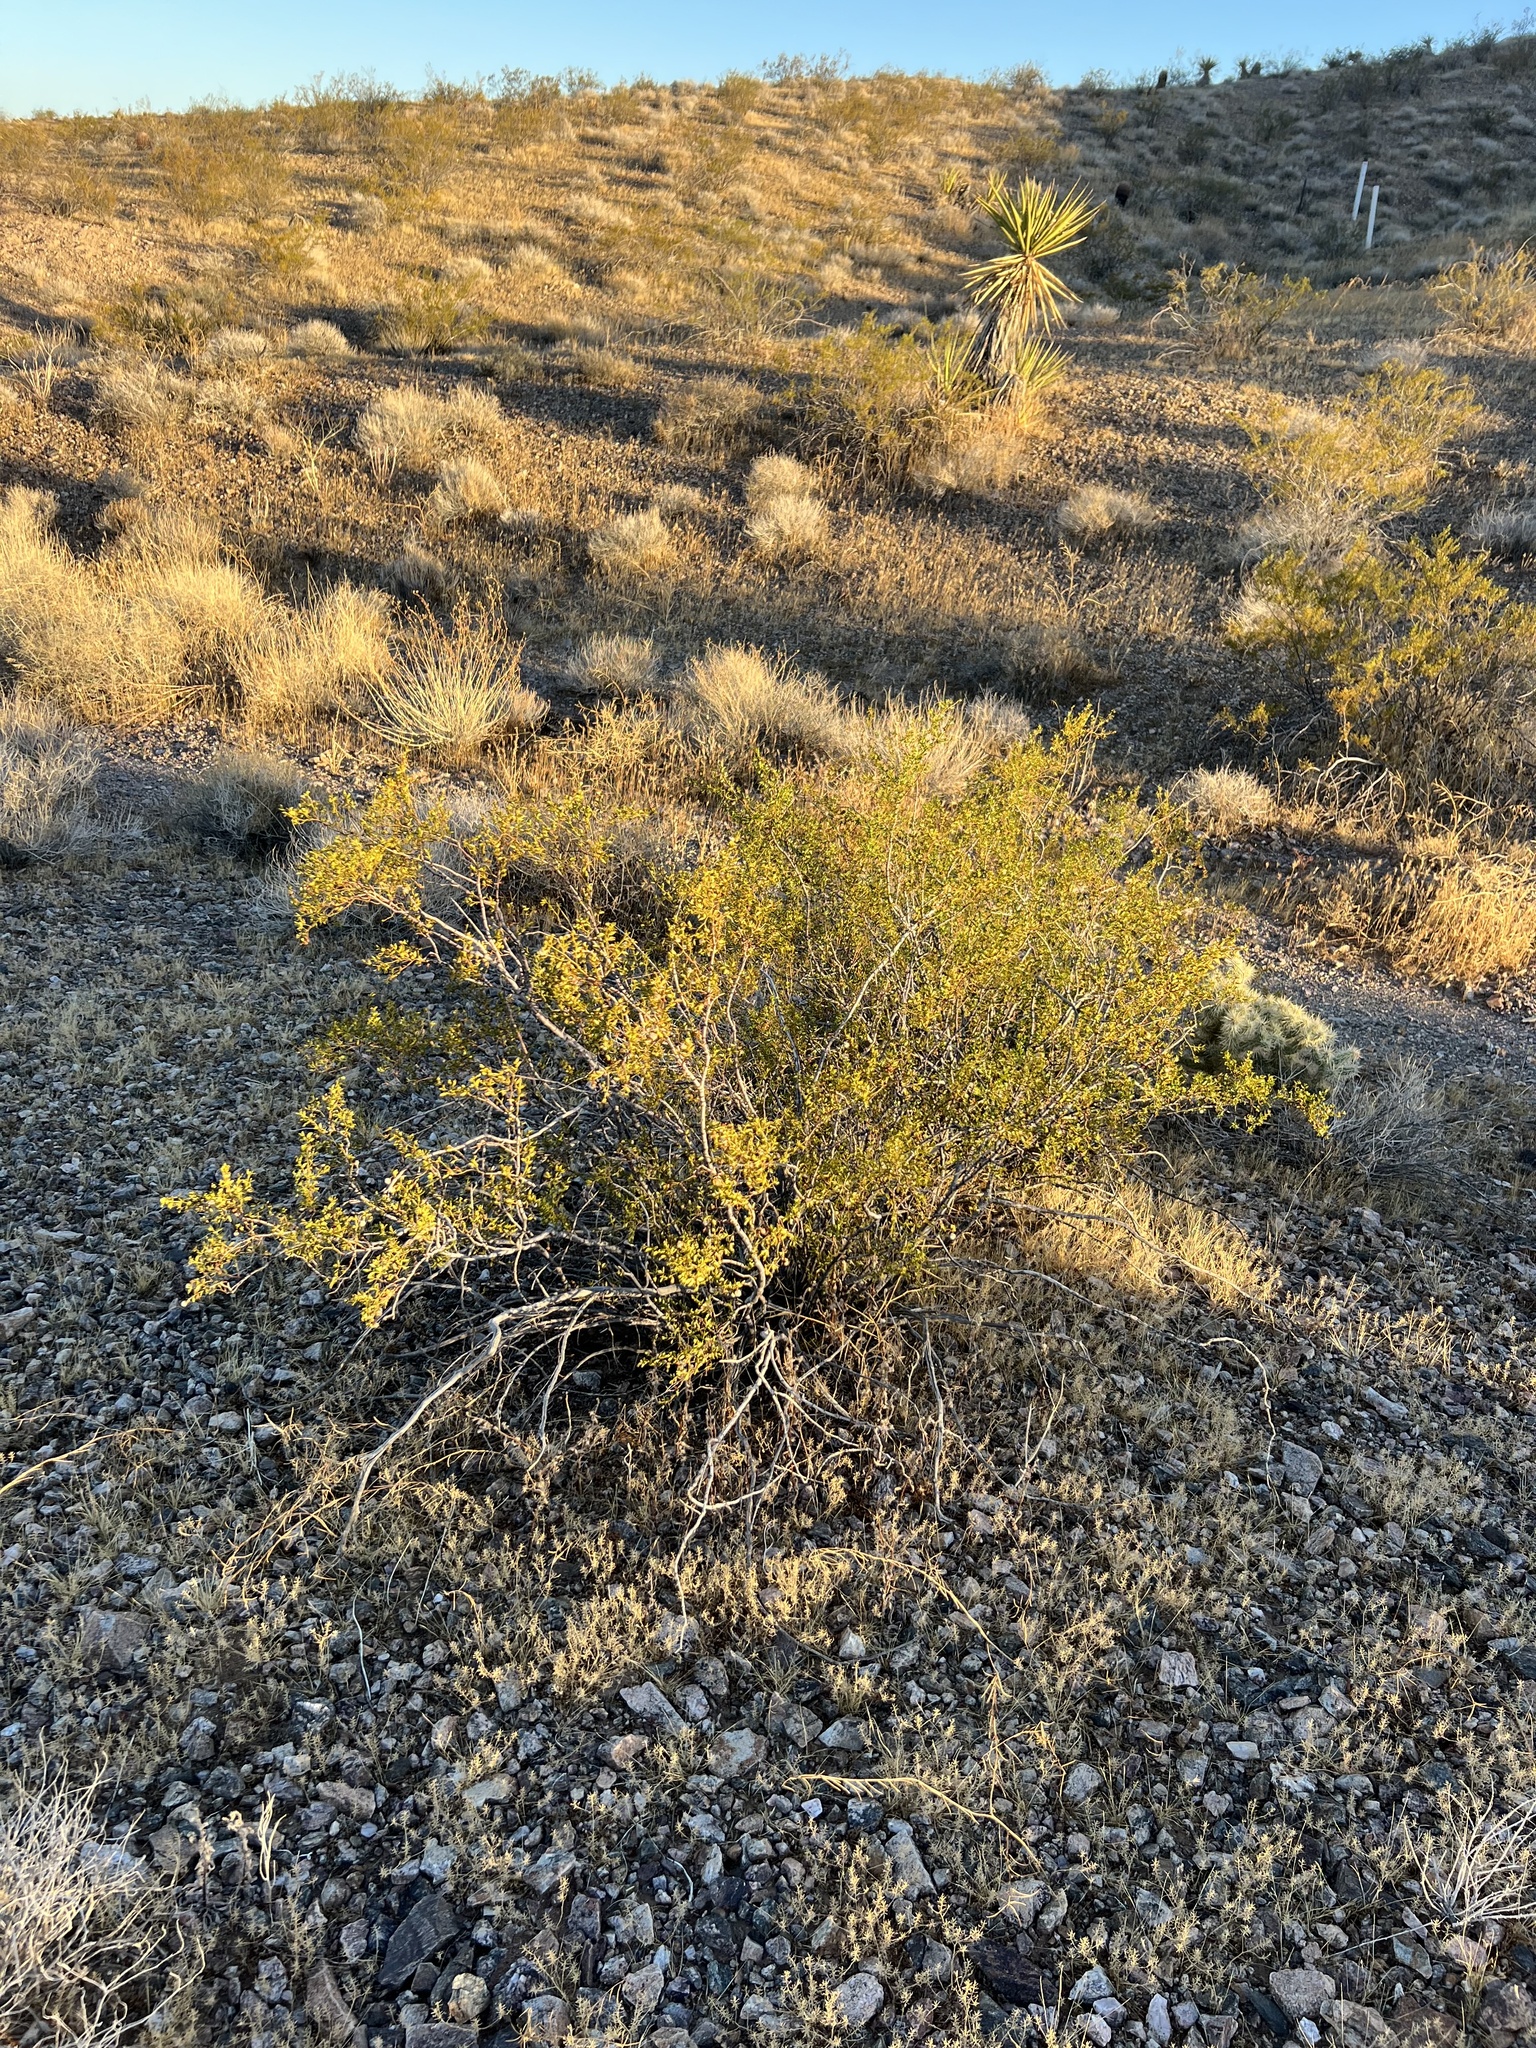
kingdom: Plantae
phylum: Tracheophyta
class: Magnoliopsida
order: Zygophyllales
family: Zygophyllaceae
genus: Larrea
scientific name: Larrea tridentata
